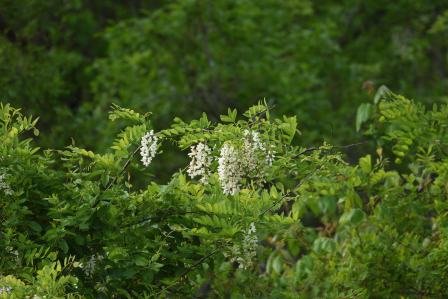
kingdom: Plantae
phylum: Tracheophyta
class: Magnoliopsida
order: Fabales
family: Fabaceae
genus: Robinia
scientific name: Robinia pseudoacacia
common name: Black locust
